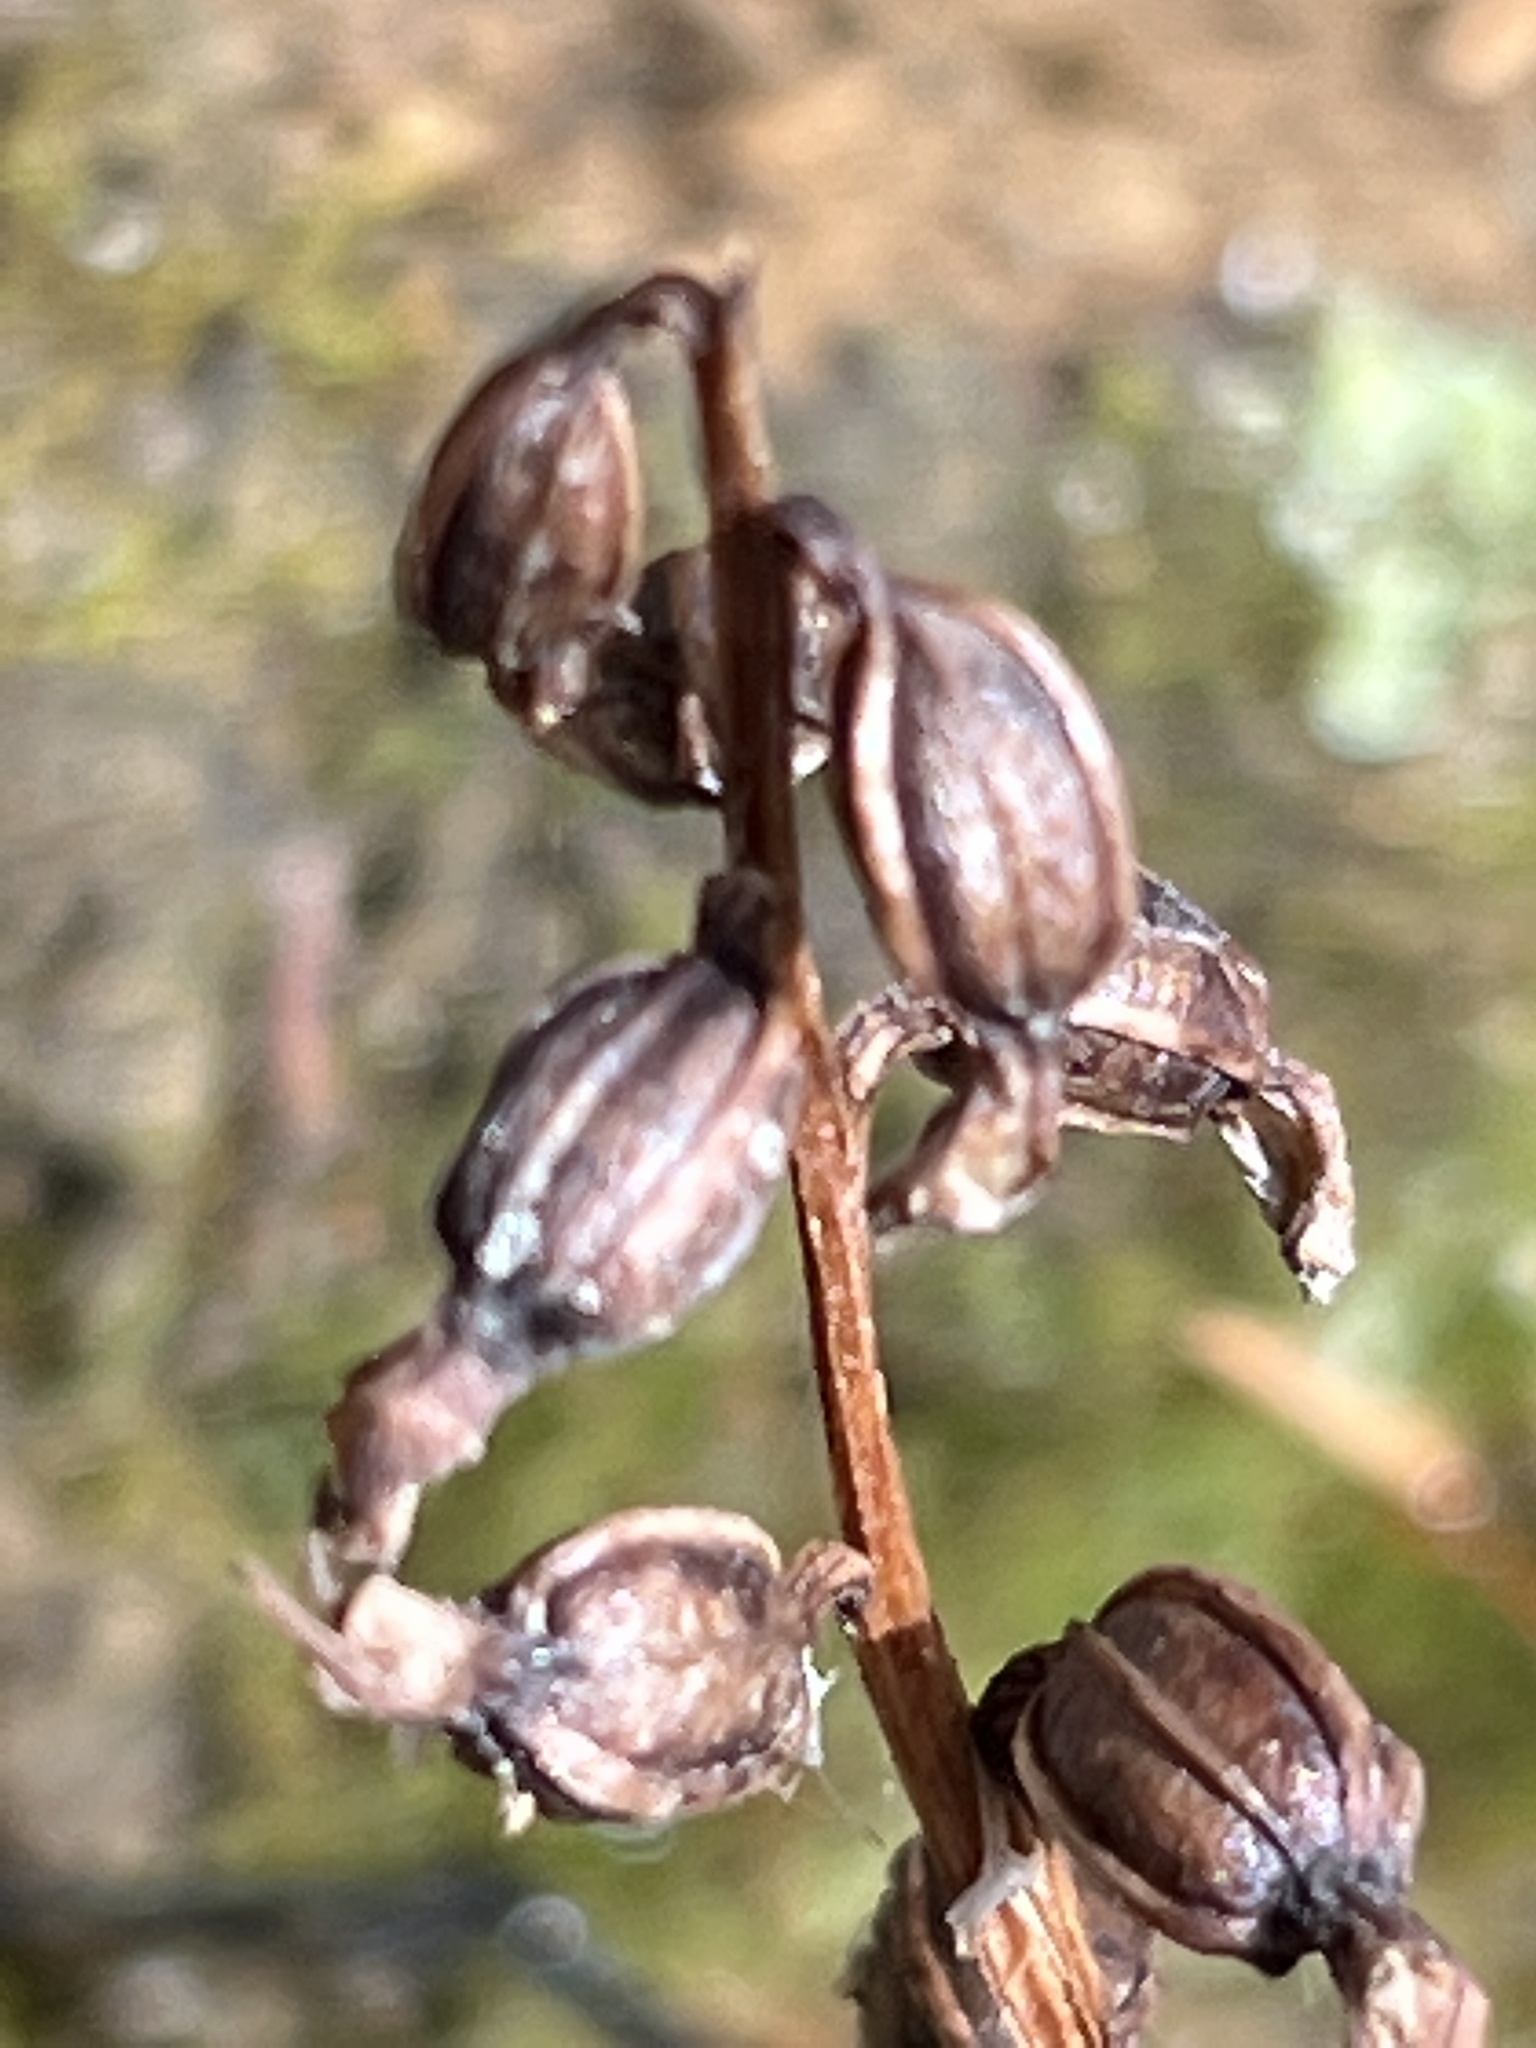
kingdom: Plantae
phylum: Tracheophyta
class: Liliopsida
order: Asparagales
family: Orchidaceae
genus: Corallorhiza
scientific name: Corallorhiza trifida
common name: Yellow coralroot
